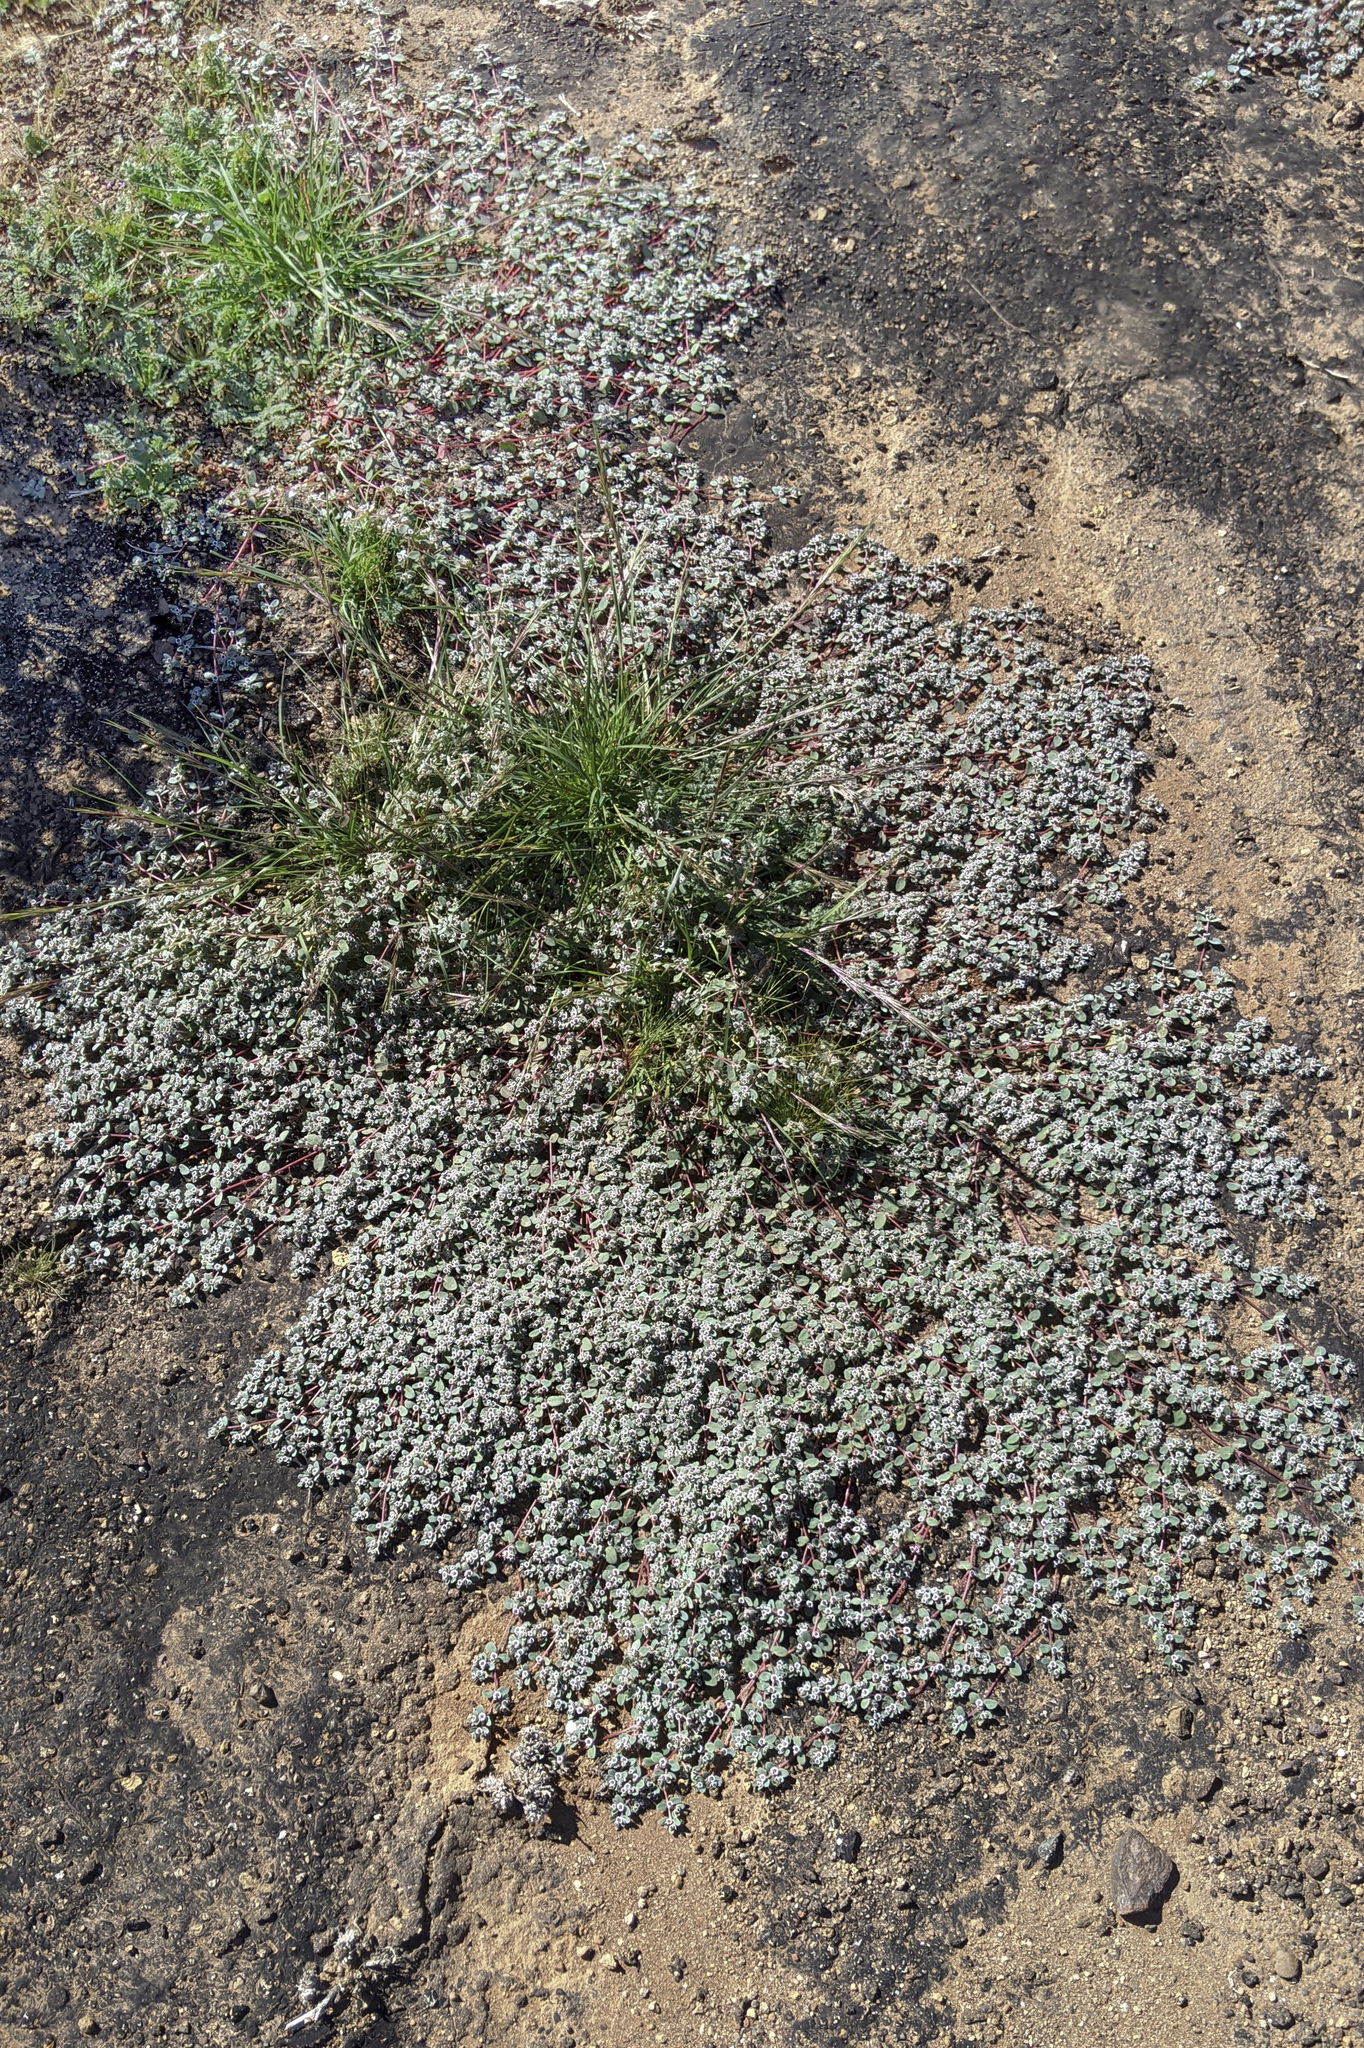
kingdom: Plantae
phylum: Tracheophyta
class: Magnoliopsida
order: Malpighiales
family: Euphorbiaceae
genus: Euphorbia
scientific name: Euphorbia melanadenia
